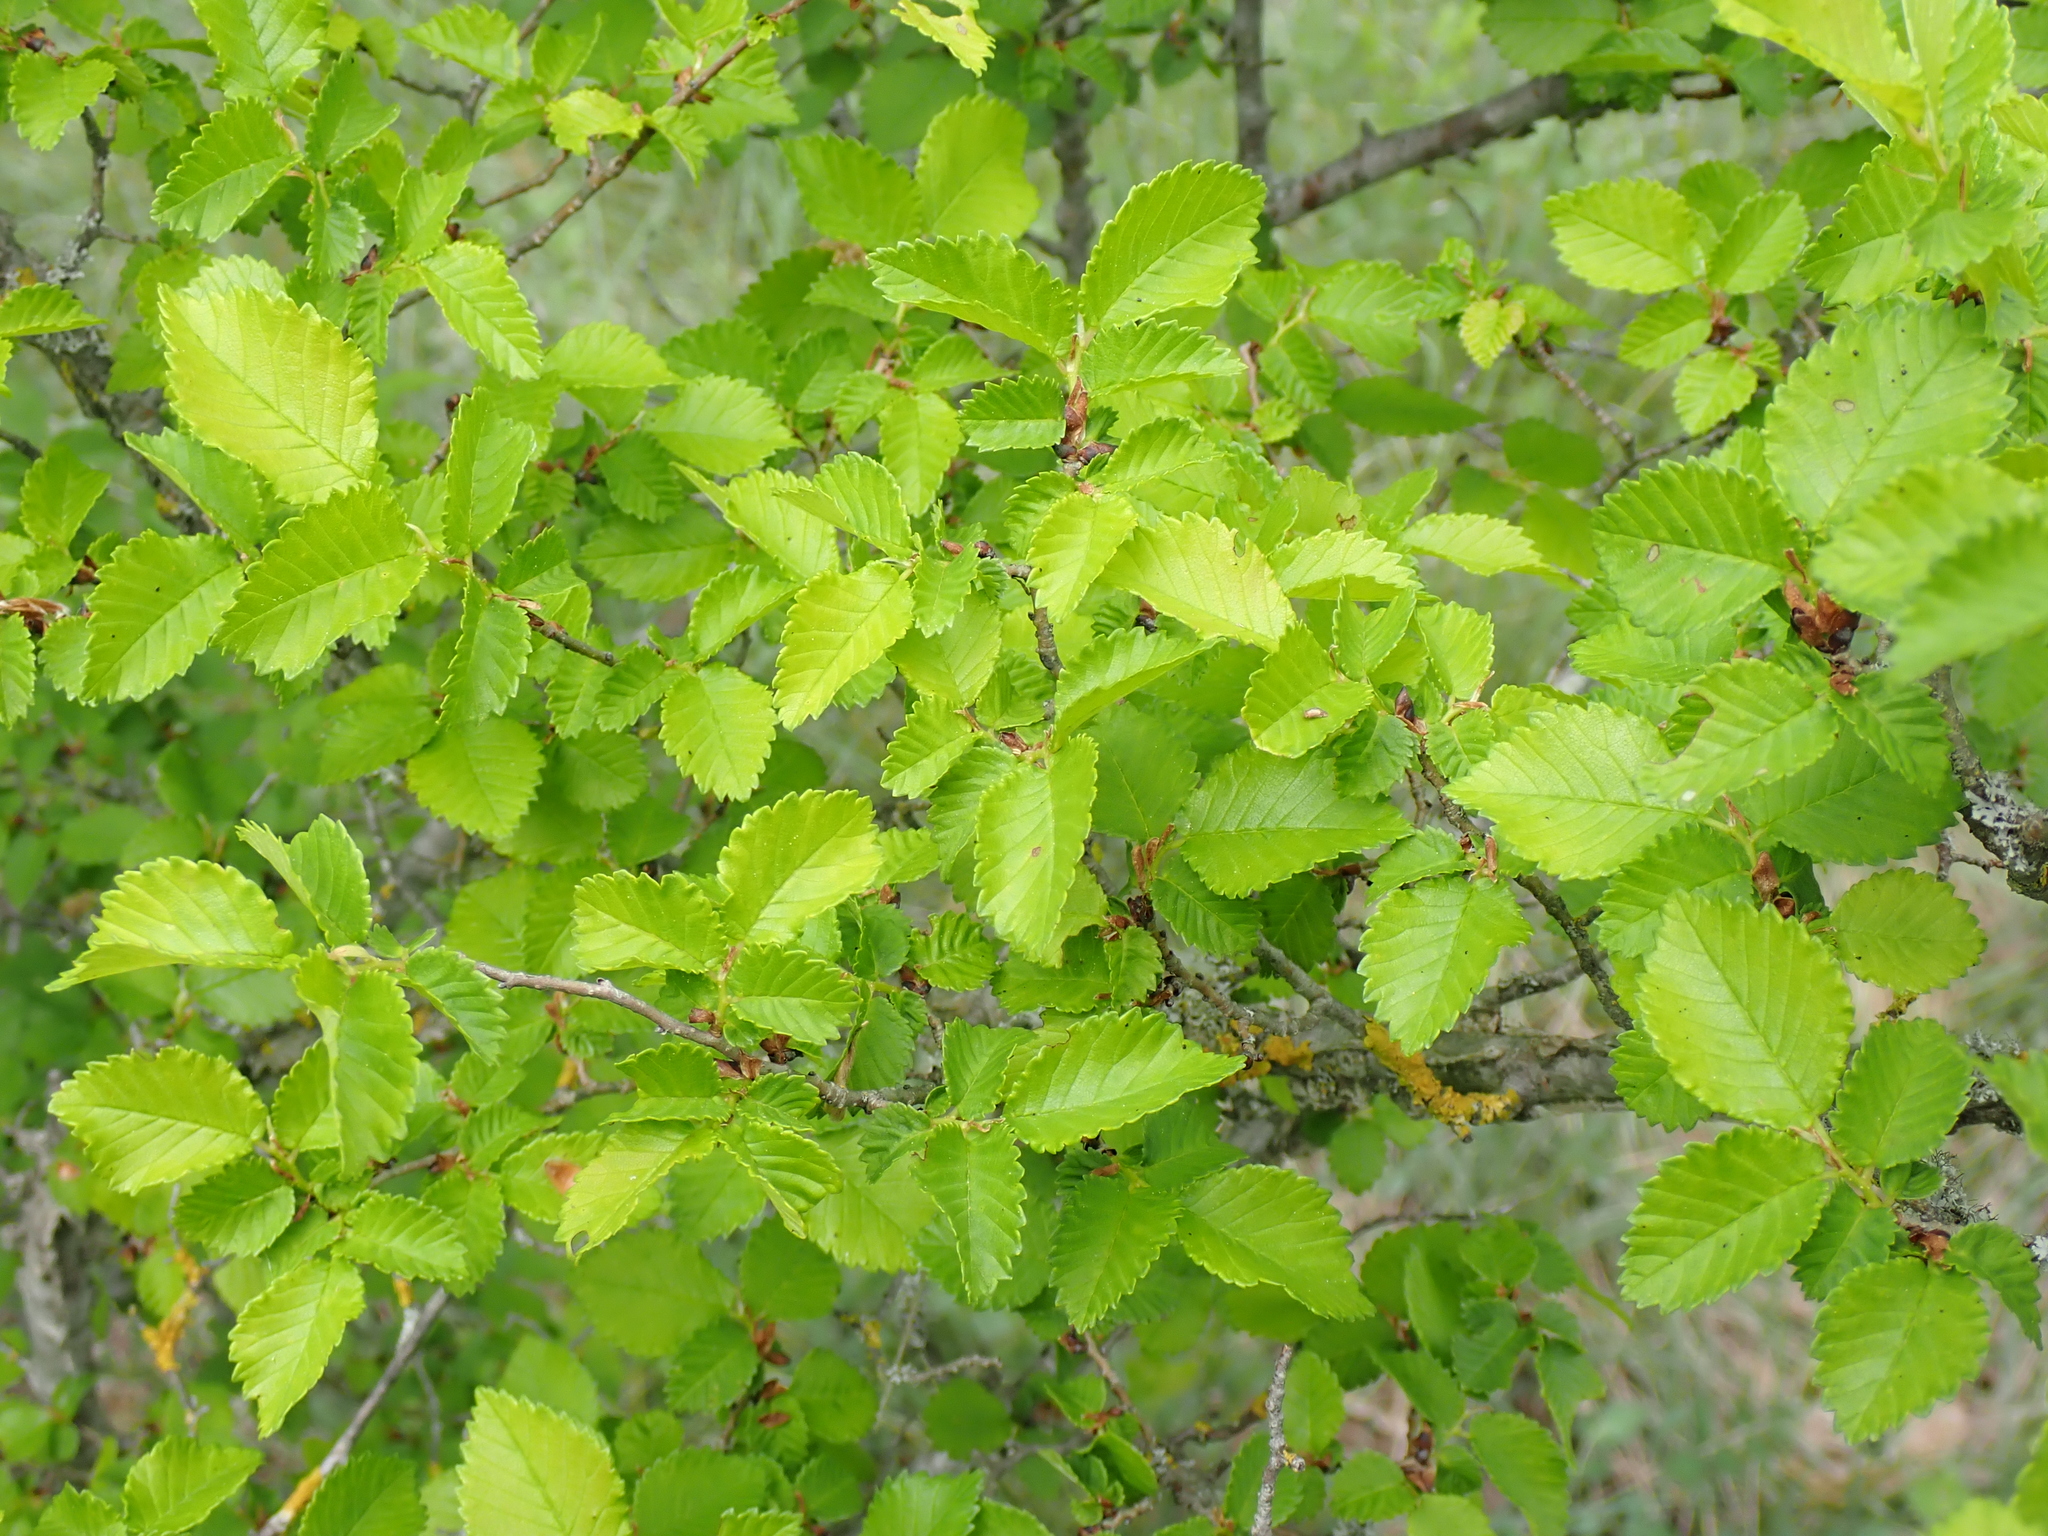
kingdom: Plantae
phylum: Tracheophyta
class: Magnoliopsida
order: Rosales
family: Ulmaceae
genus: Ulmus
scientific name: Ulmus minor
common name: Small-leaved elm
